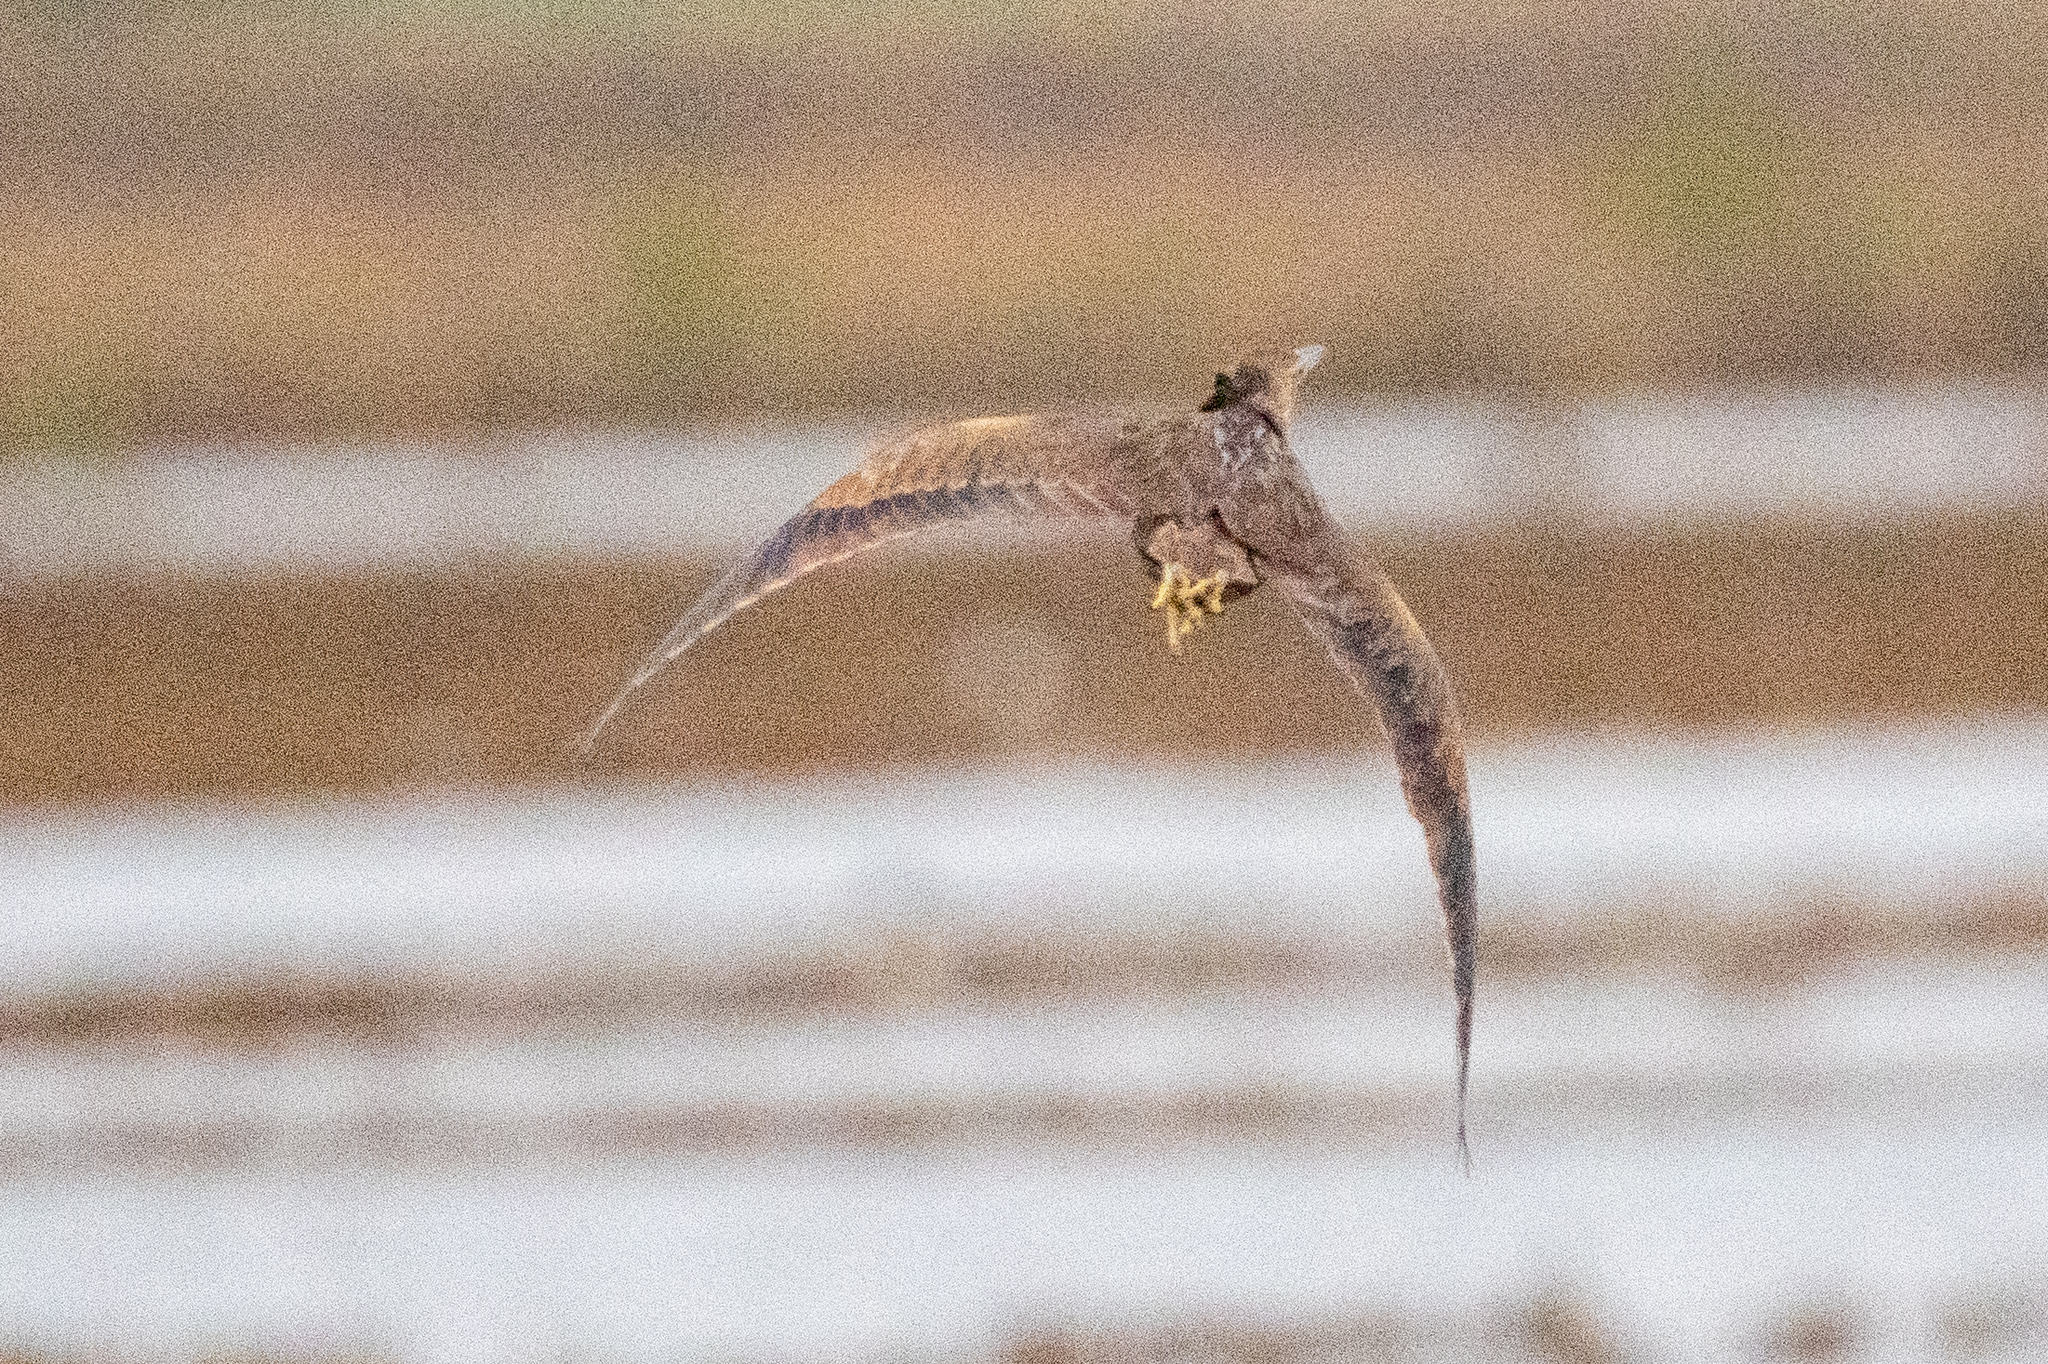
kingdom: Animalia
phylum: Chordata
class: Aves
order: Pelecaniformes
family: Ardeidae
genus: Botaurus
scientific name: Botaurus lentiginosus
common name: American bittern
